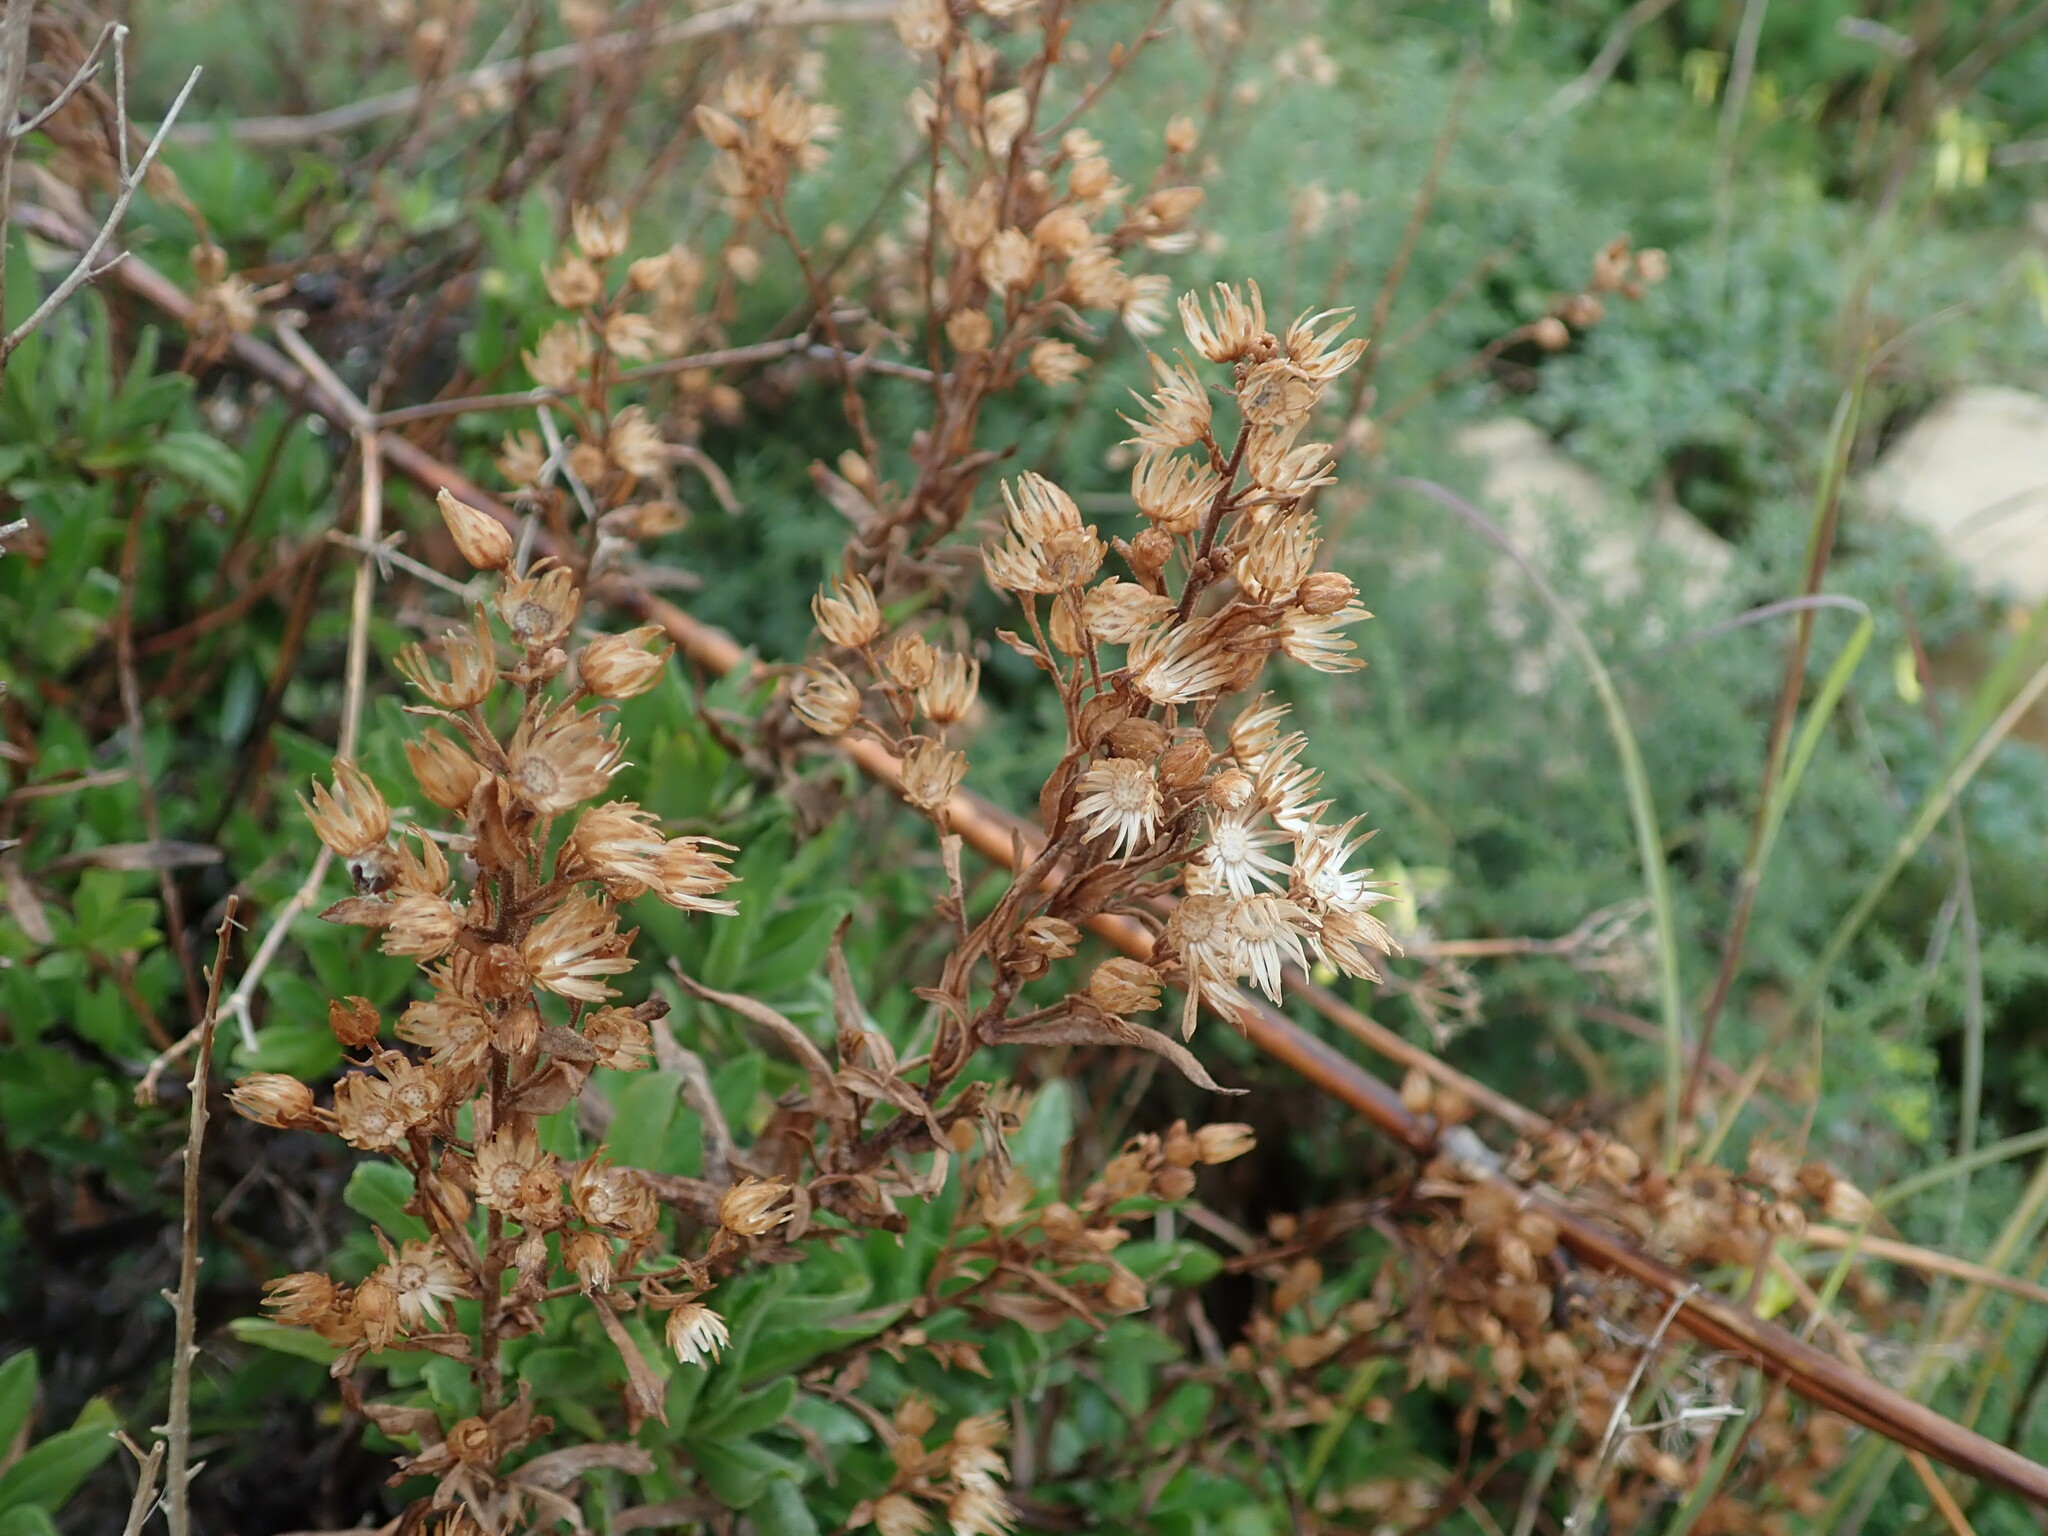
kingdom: Plantae
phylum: Tracheophyta
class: Magnoliopsida
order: Asterales
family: Asteraceae
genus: Dittrichia
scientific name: Dittrichia viscosa
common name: Woody fleabane
